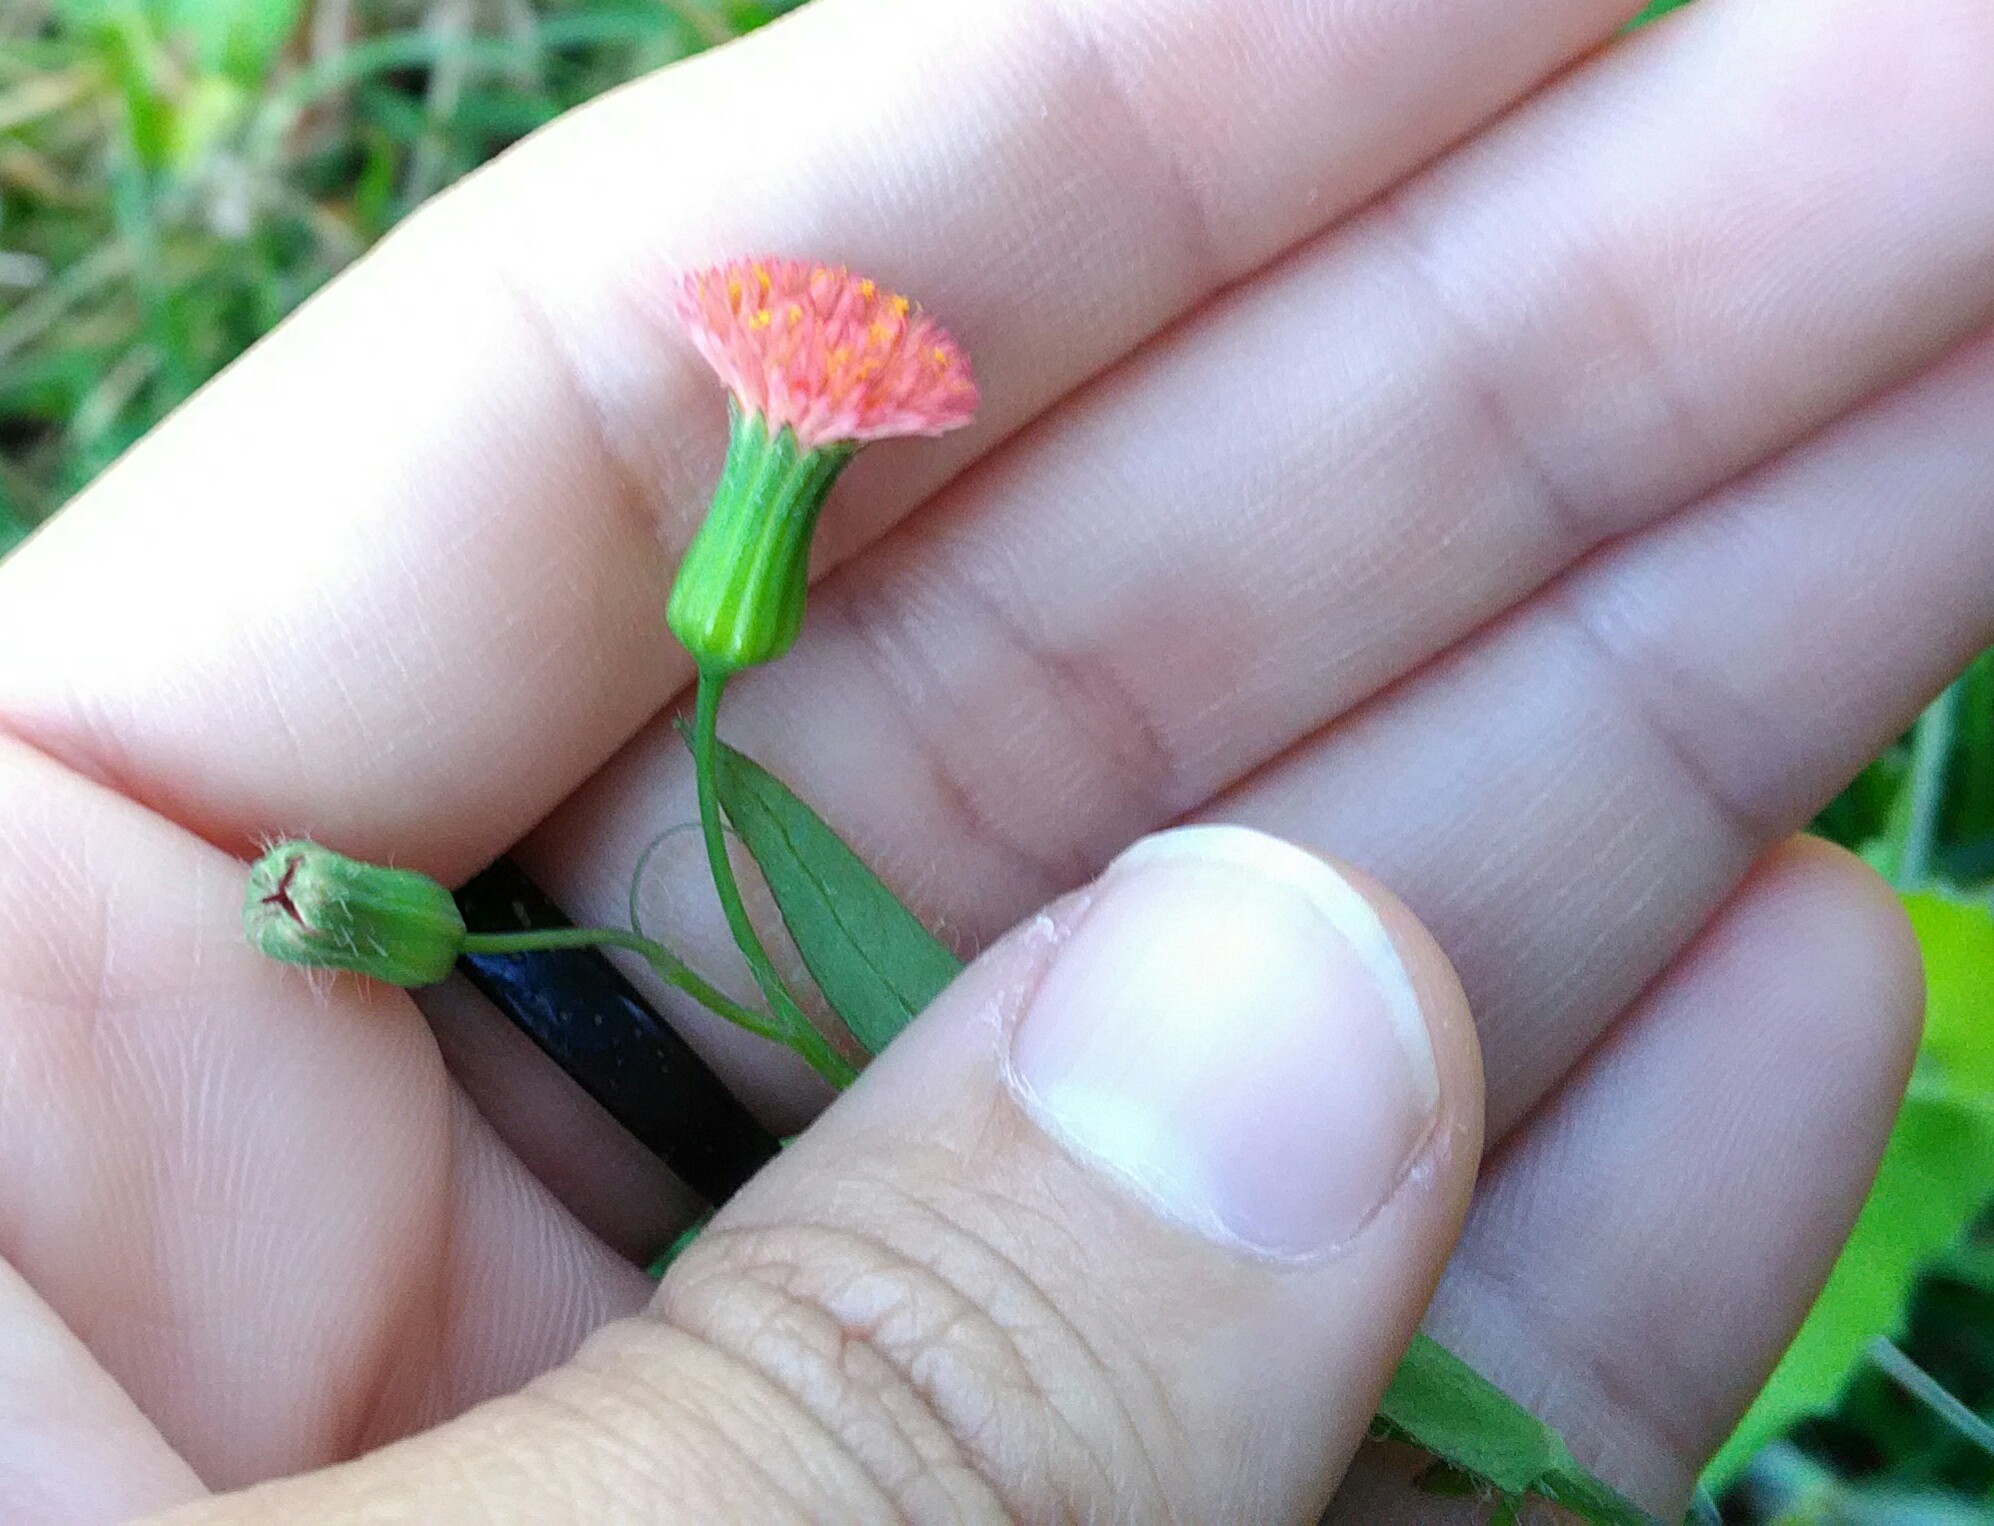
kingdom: Plantae
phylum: Tracheophyta
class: Magnoliopsida
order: Asterales
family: Asteraceae
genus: Emilia
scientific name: Emilia fosbergii
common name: Florida tasselflower
